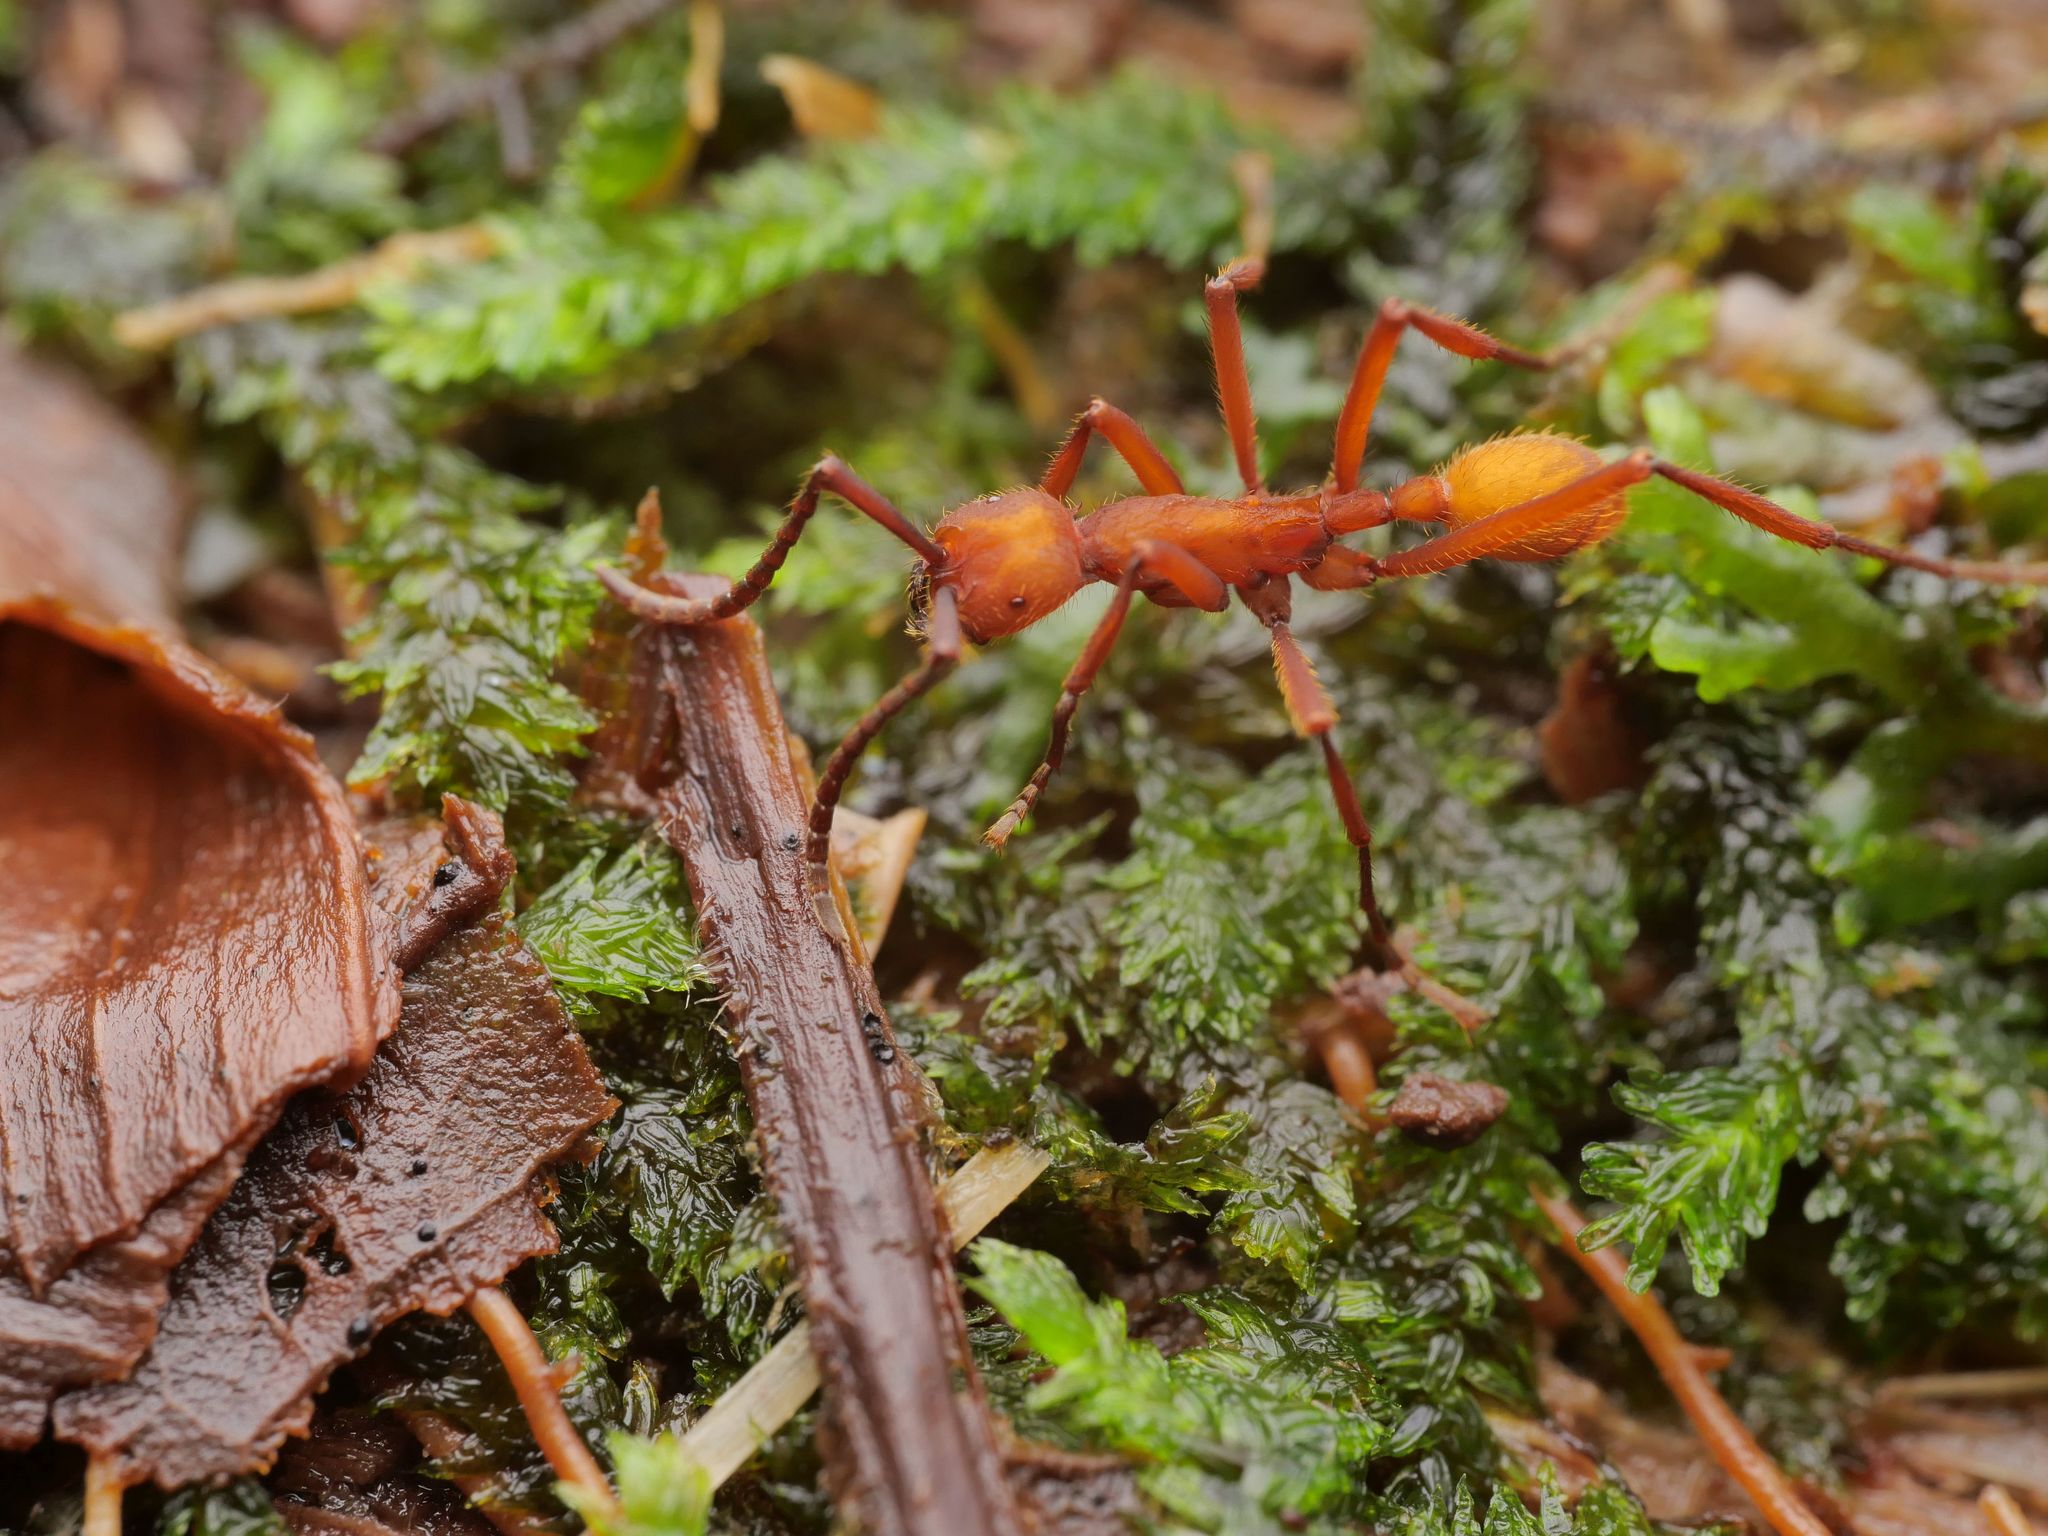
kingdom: Animalia
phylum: Arthropoda
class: Insecta
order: Hymenoptera
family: Formicidae
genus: Eciton
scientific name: Eciton lucanoides
